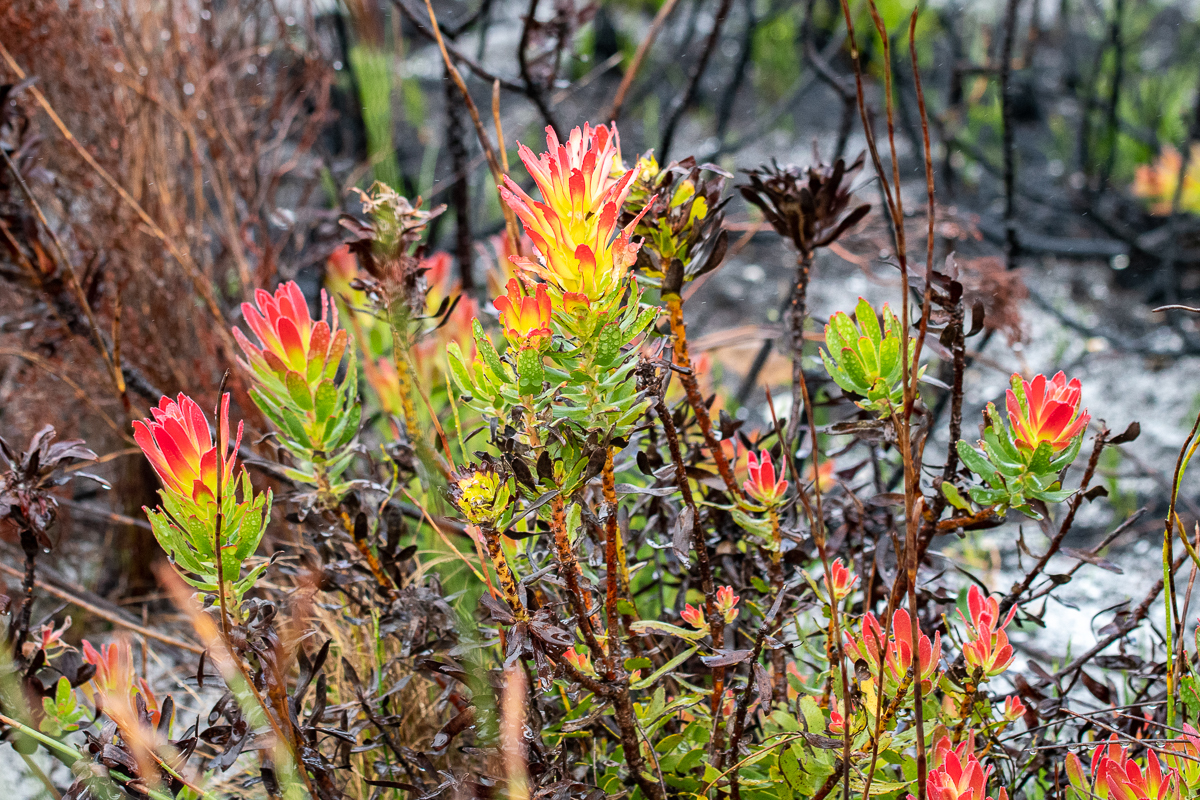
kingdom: Plantae
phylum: Tracheophyta
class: Magnoliopsida
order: Proteales
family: Proteaceae
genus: Mimetes
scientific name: Mimetes cucullatus
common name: Common pagoda
